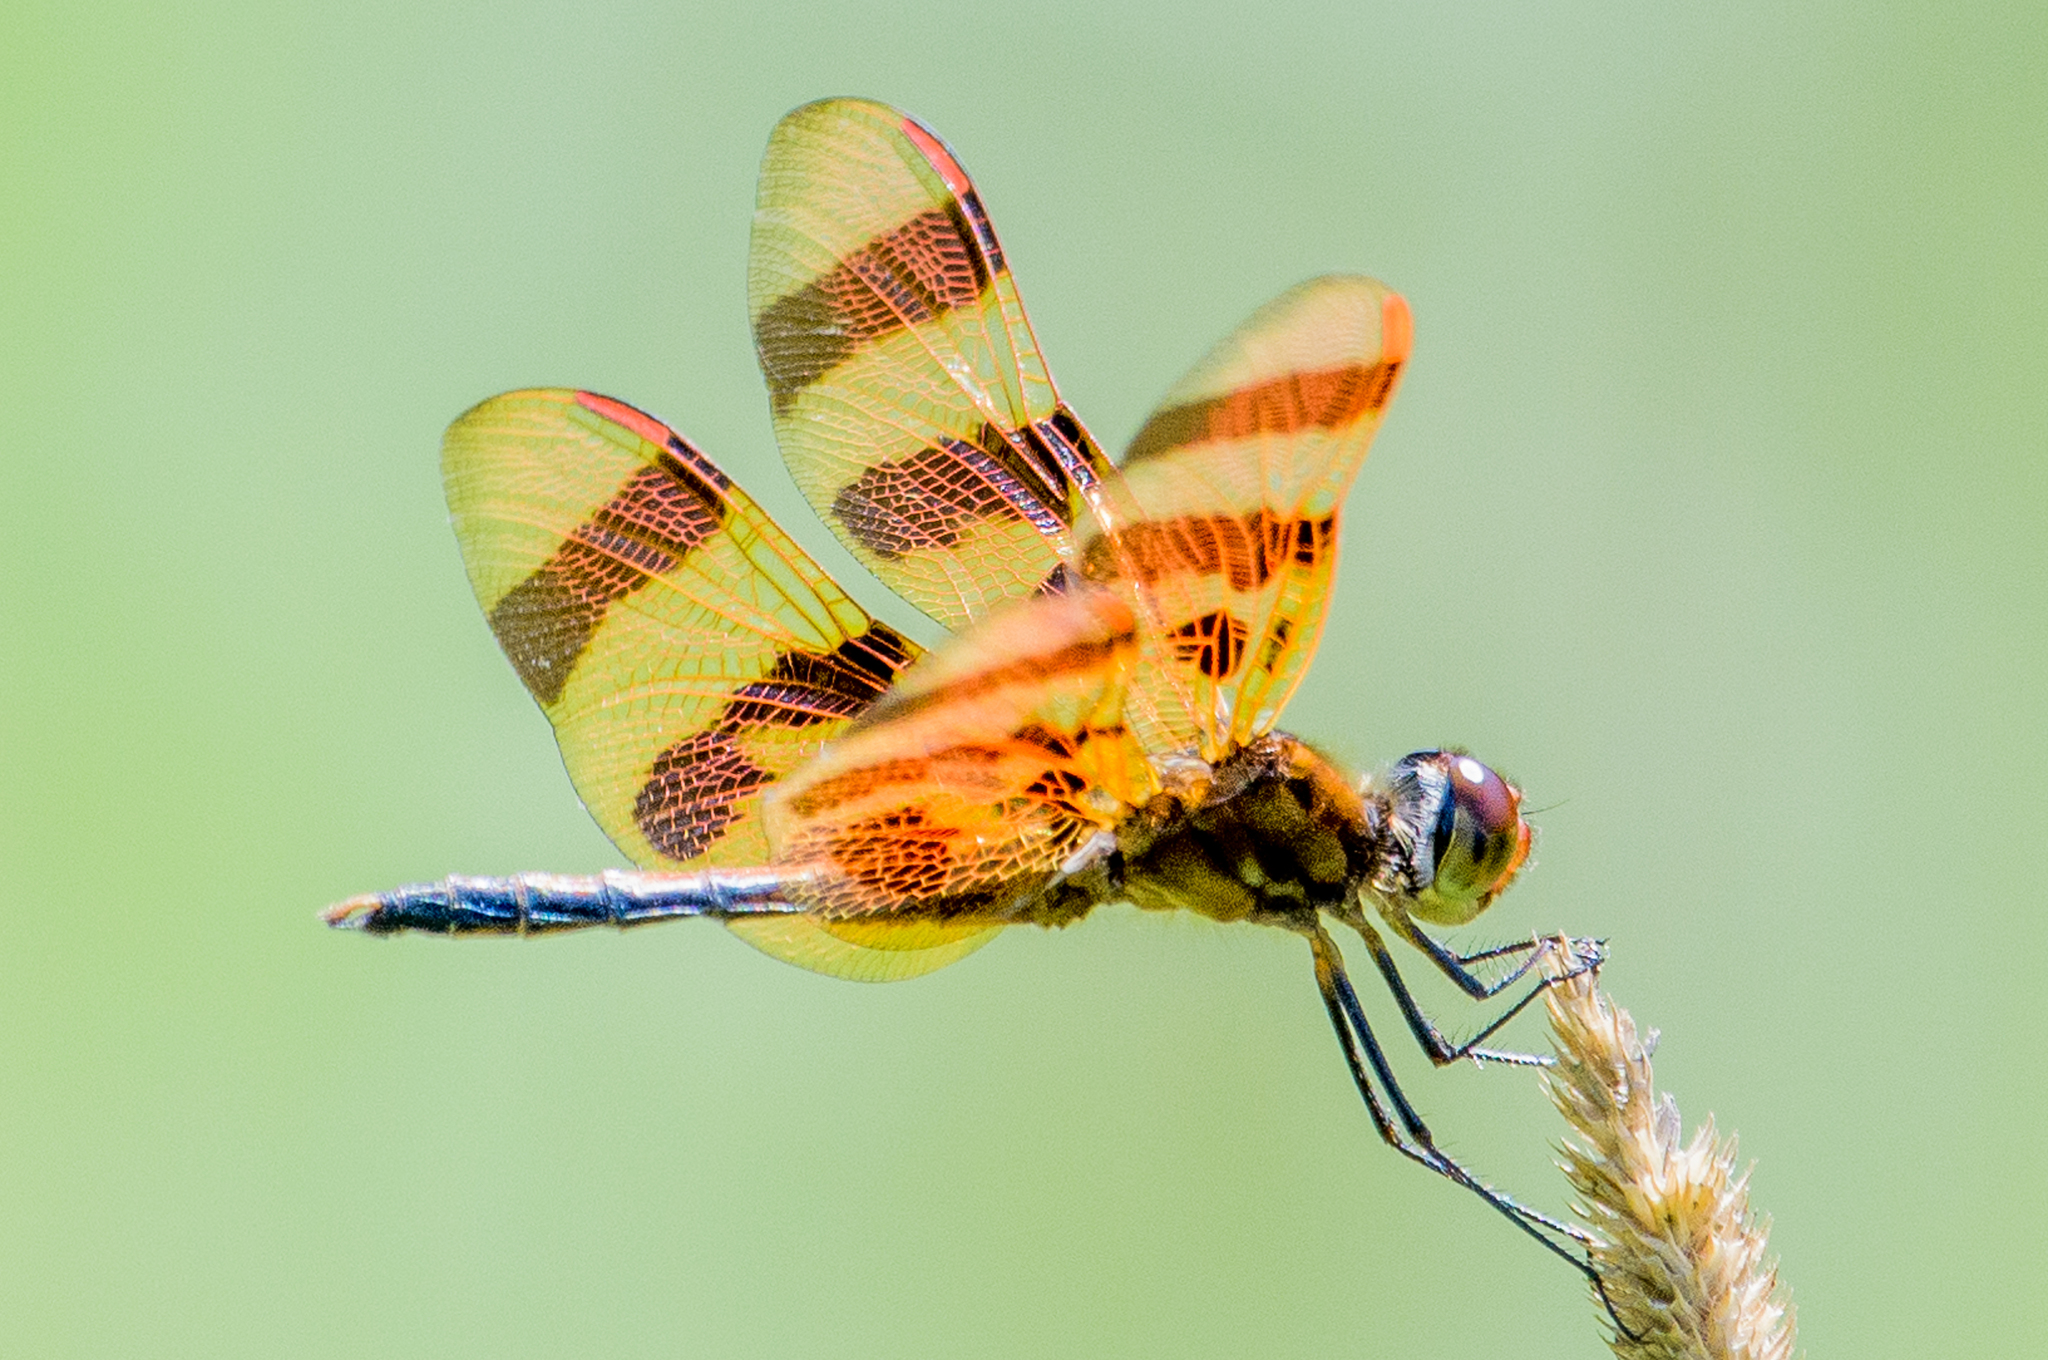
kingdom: Animalia
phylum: Arthropoda
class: Insecta
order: Odonata
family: Libellulidae
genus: Celithemis
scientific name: Celithemis eponina
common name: Halloween pennant
